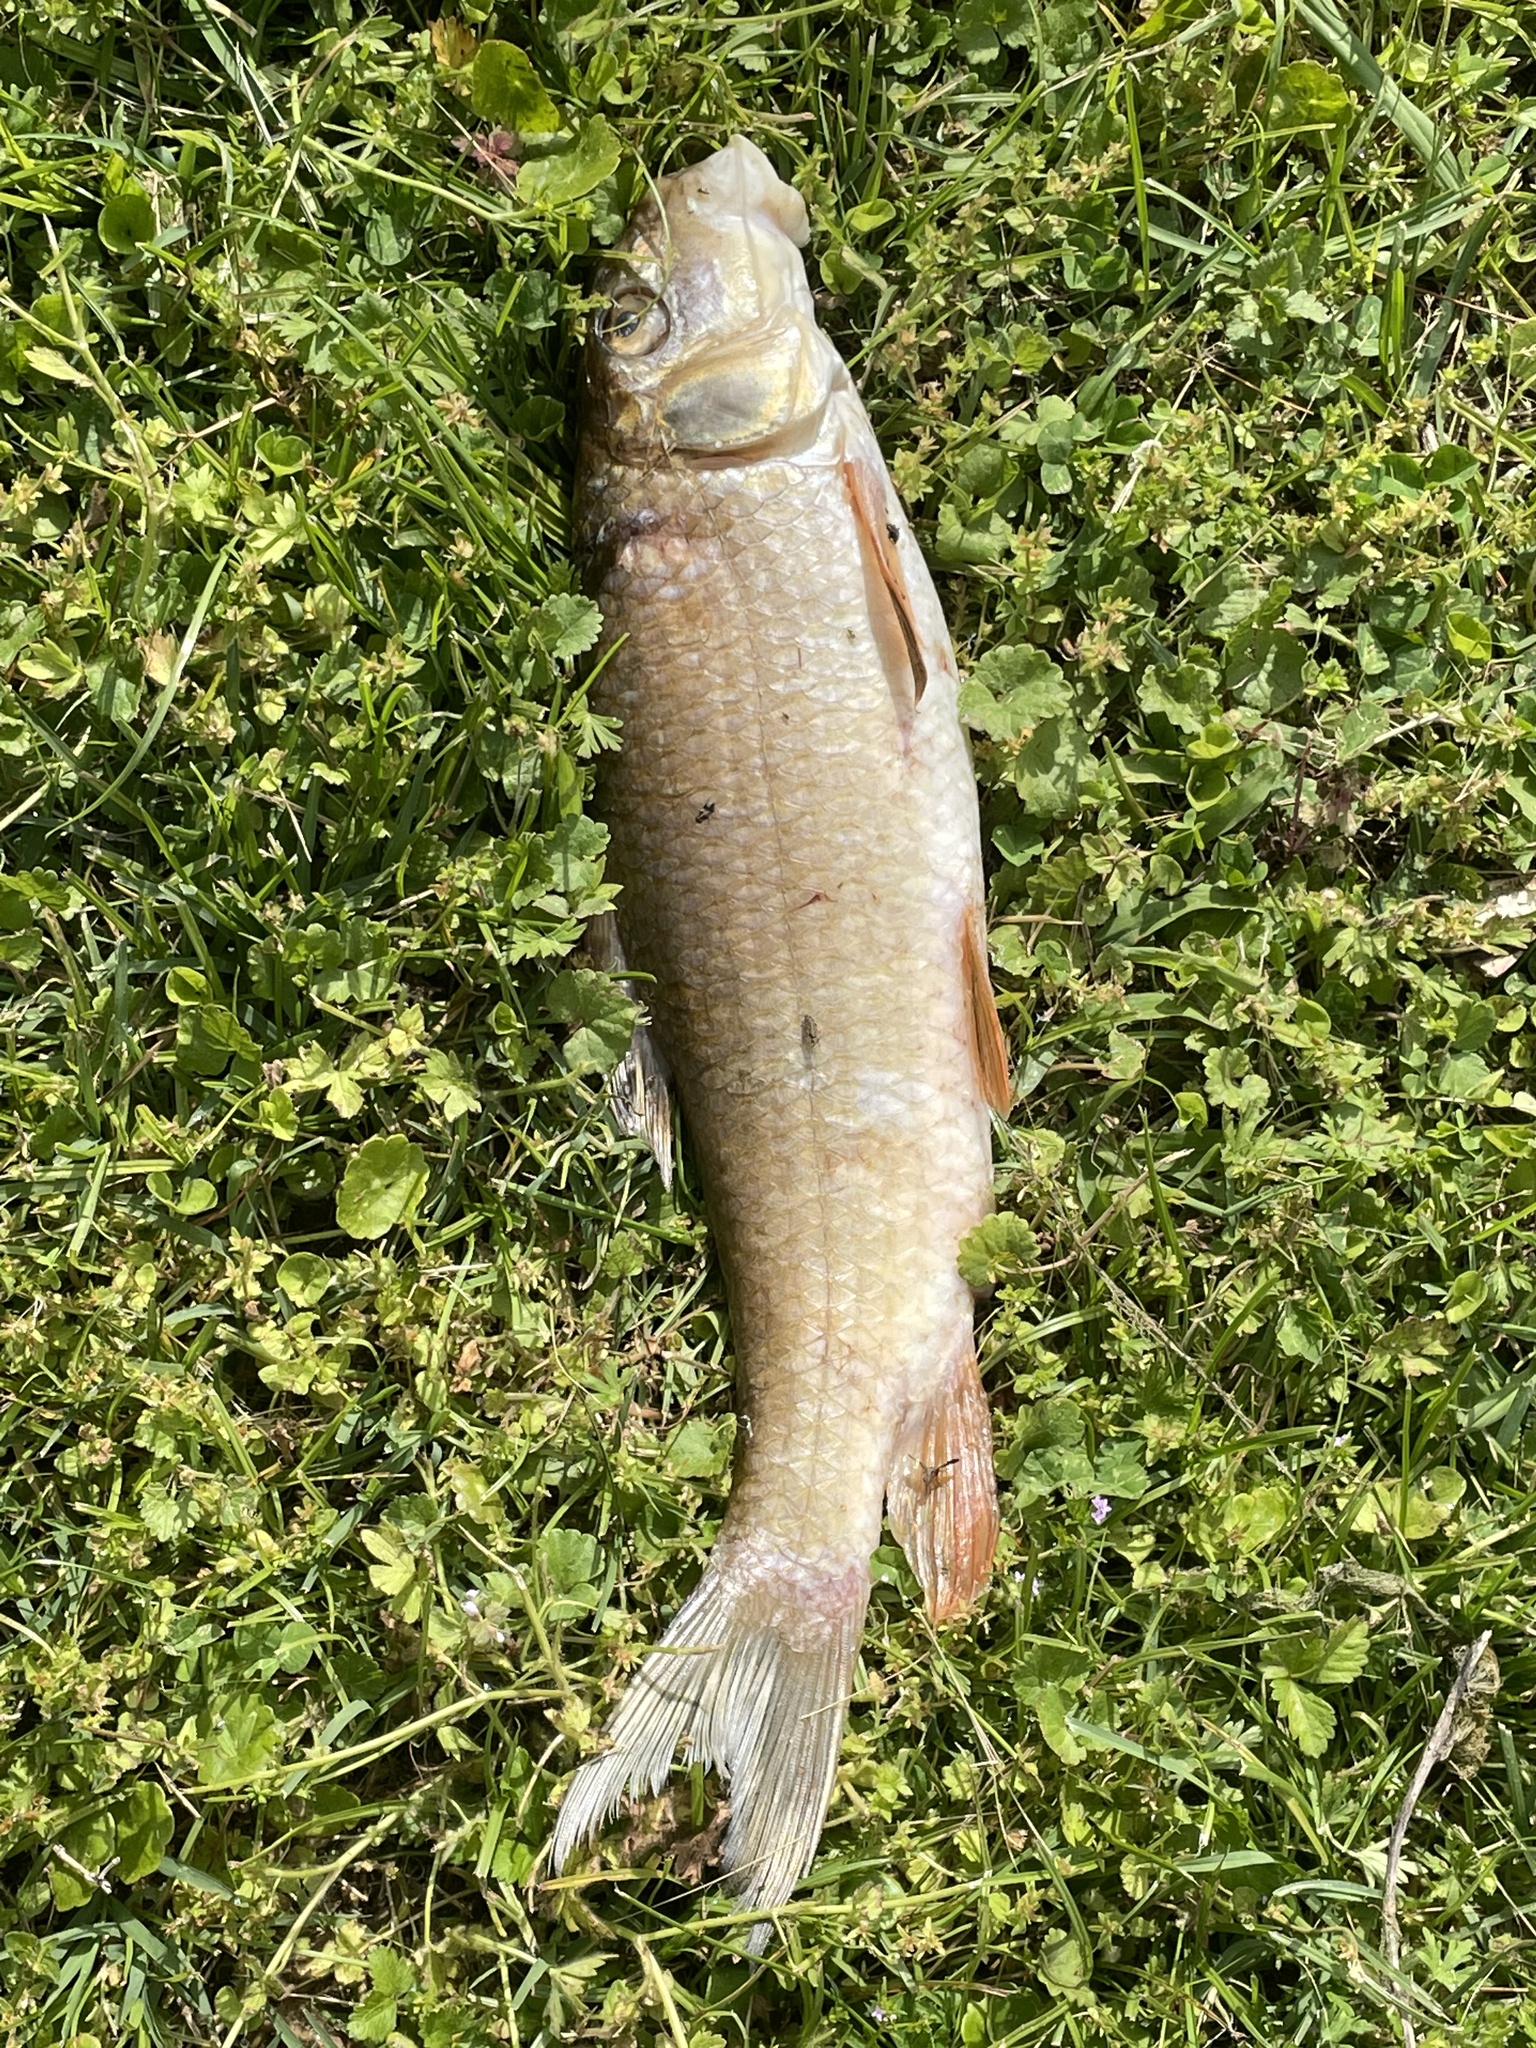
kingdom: Animalia
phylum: Chordata
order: Cypriniformes
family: Catostomidae
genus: Moxostoma
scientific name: Moxostoma erythrurum
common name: Golden redhorse
